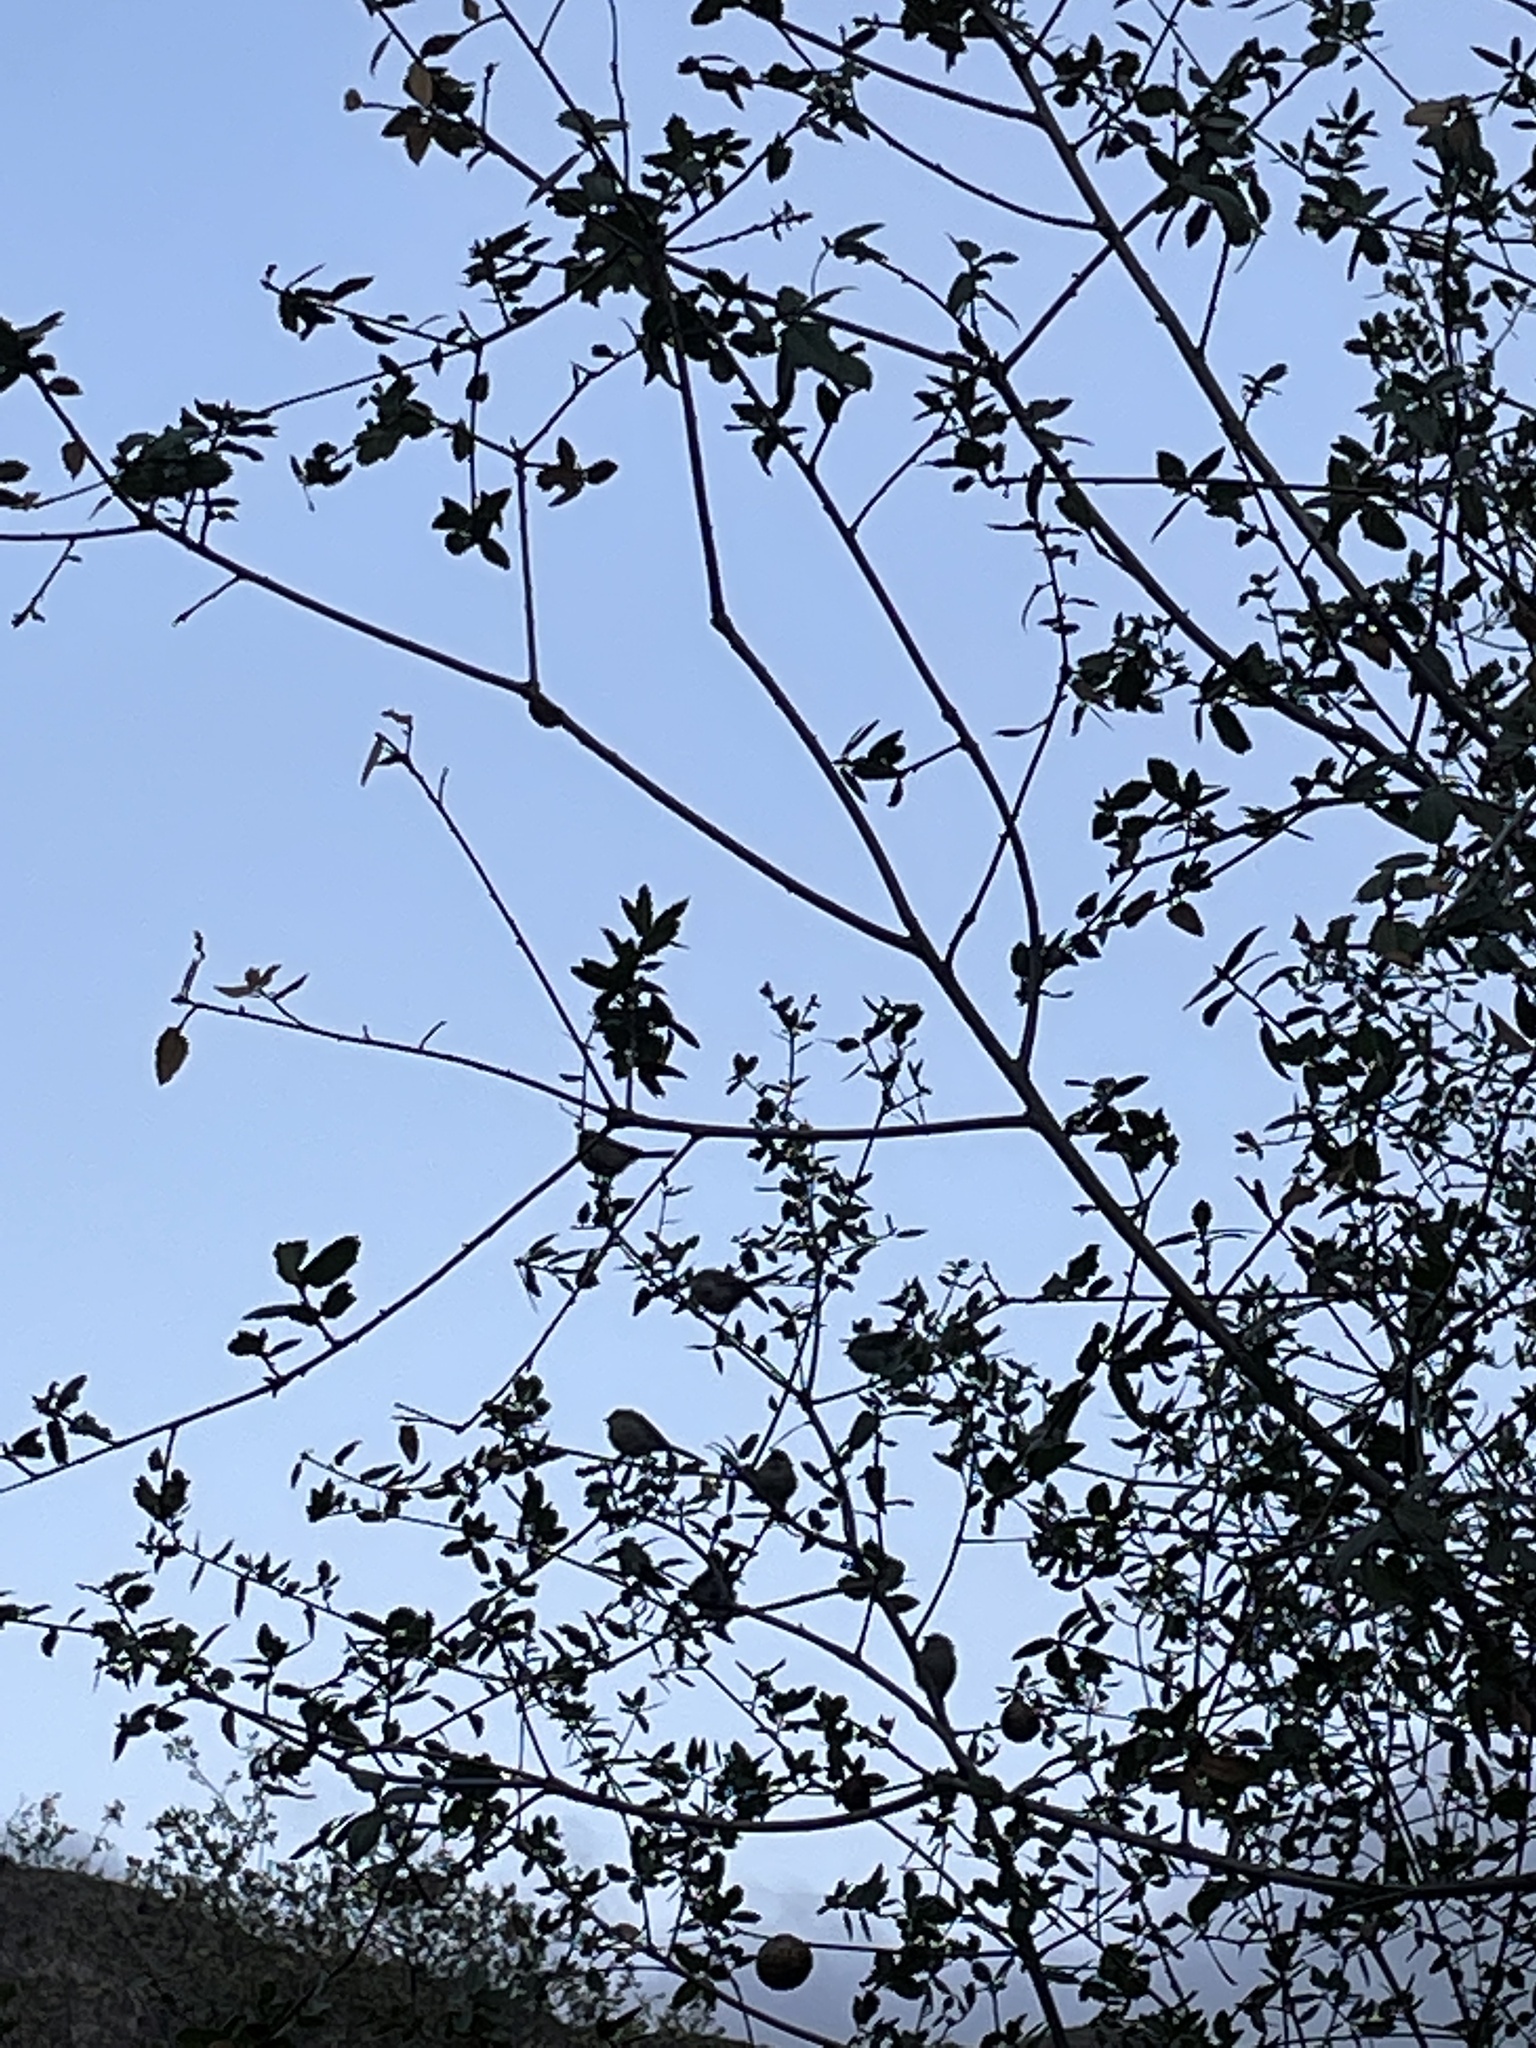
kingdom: Animalia
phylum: Chordata
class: Aves
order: Passeriformes
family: Aegithalidae
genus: Psaltriparus
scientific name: Psaltriparus minimus
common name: American bushtit
